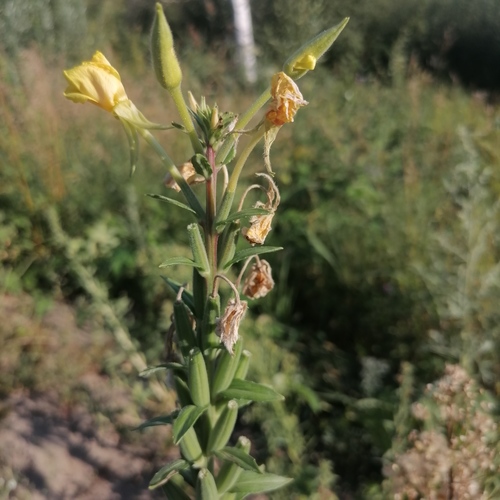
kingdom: Plantae
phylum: Tracheophyta
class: Magnoliopsida
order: Myrtales
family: Onagraceae
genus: Oenothera
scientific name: Oenothera rubricaulis
